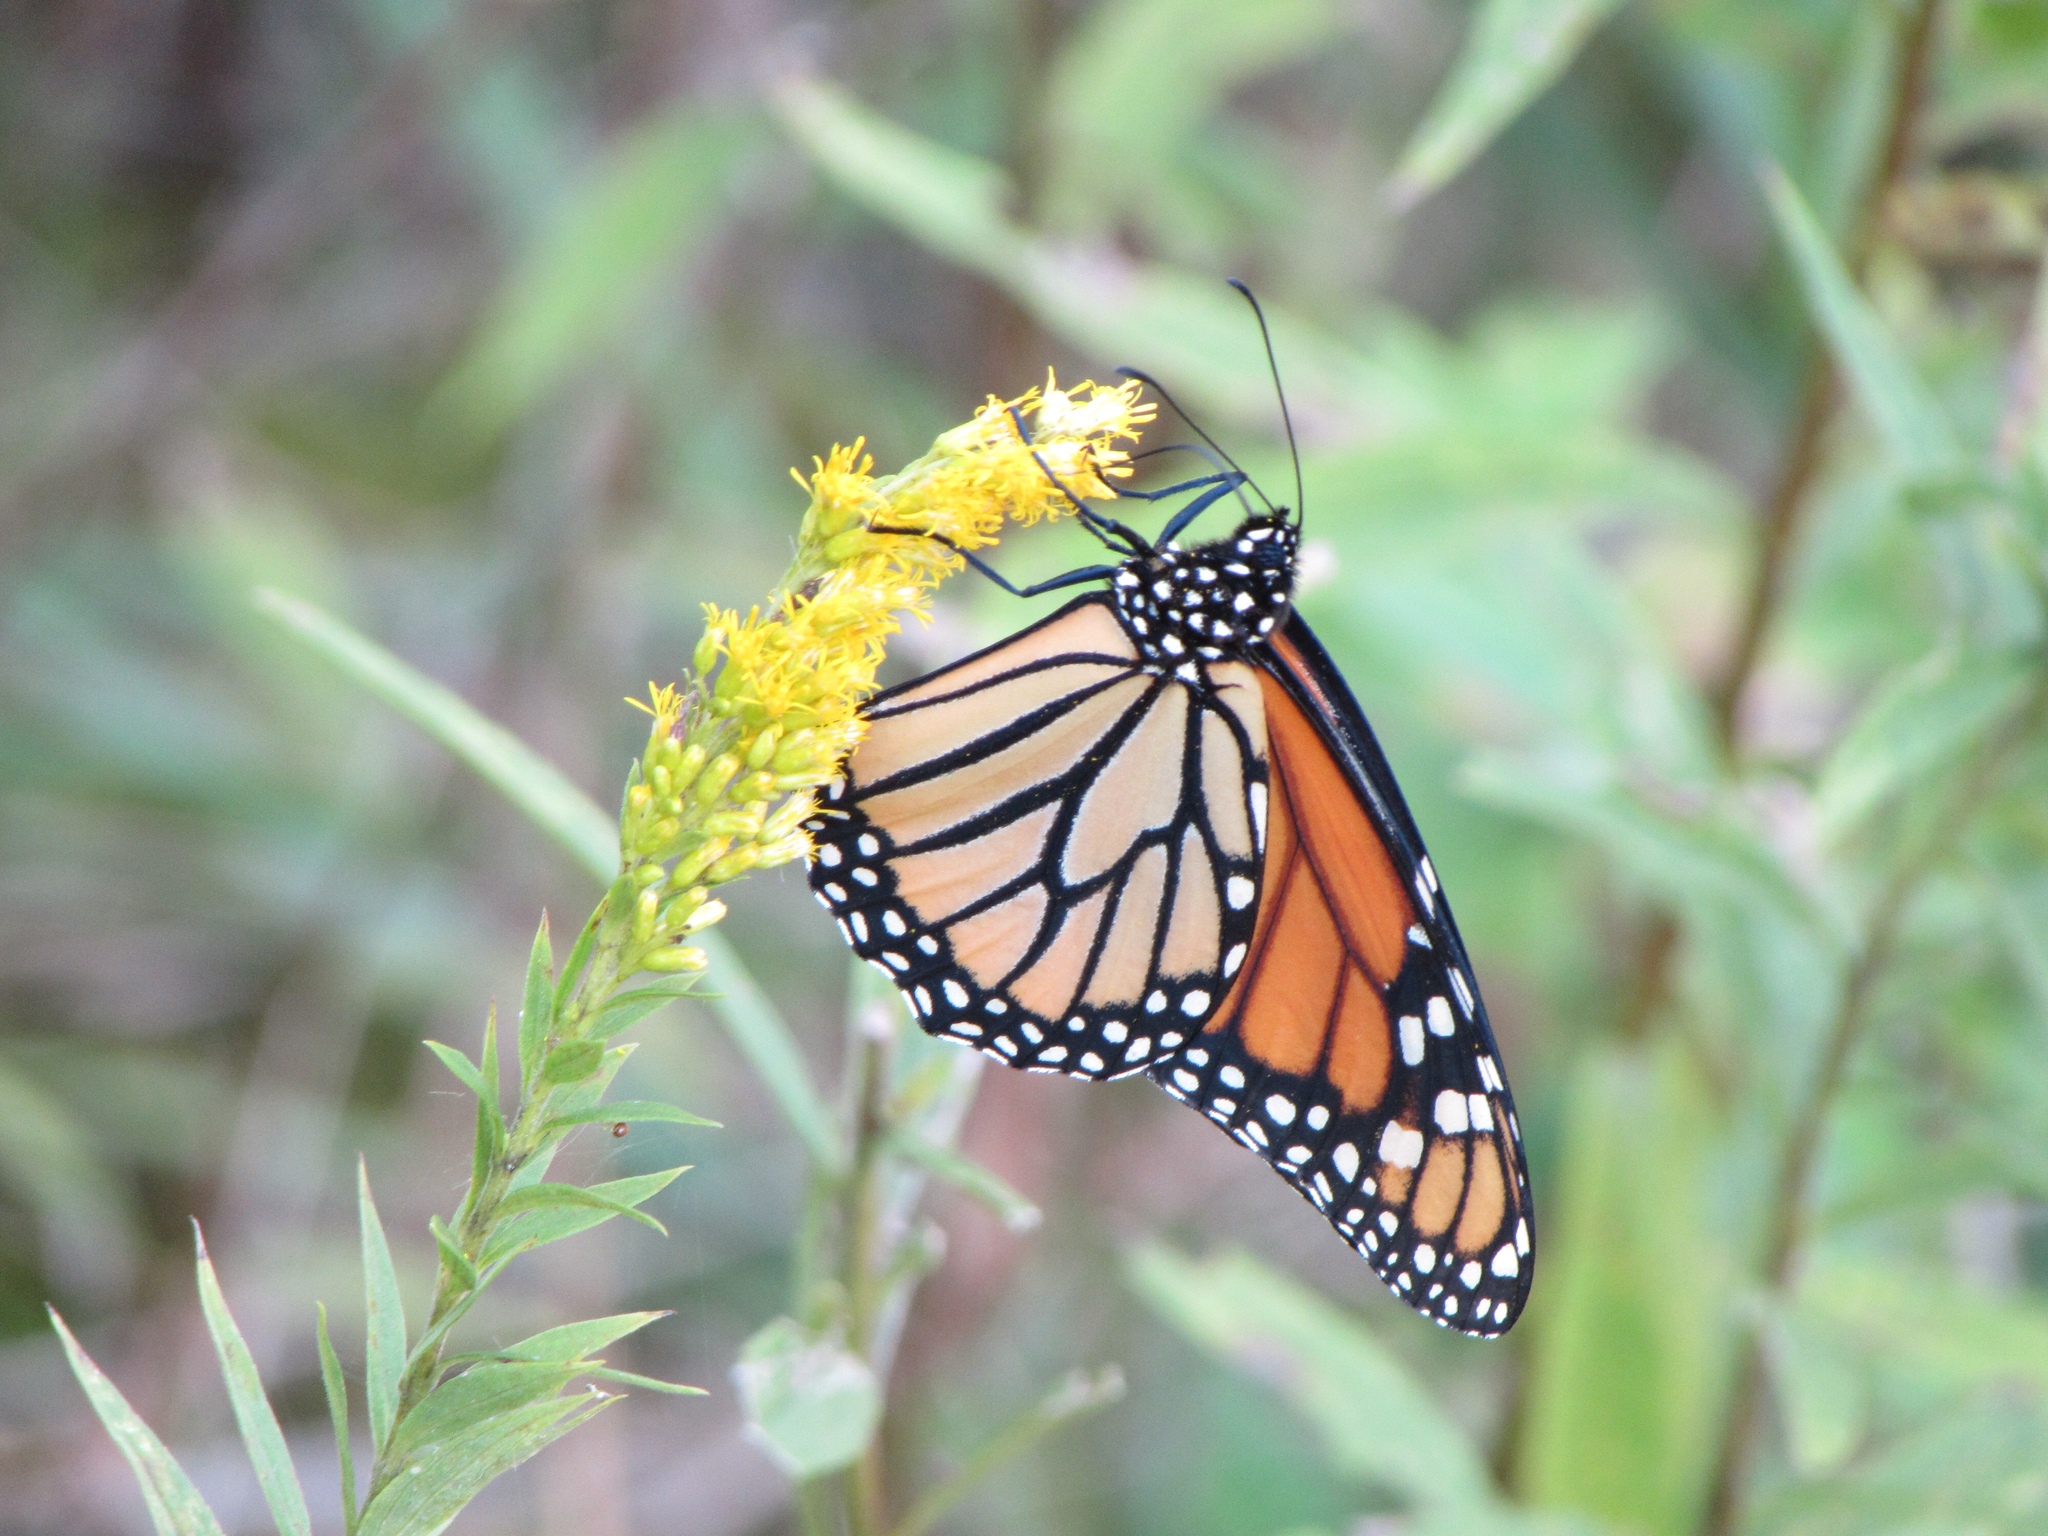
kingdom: Animalia
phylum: Arthropoda
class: Insecta
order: Lepidoptera
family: Nymphalidae
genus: Danaus
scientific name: Danaus plexippus
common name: Monarch
